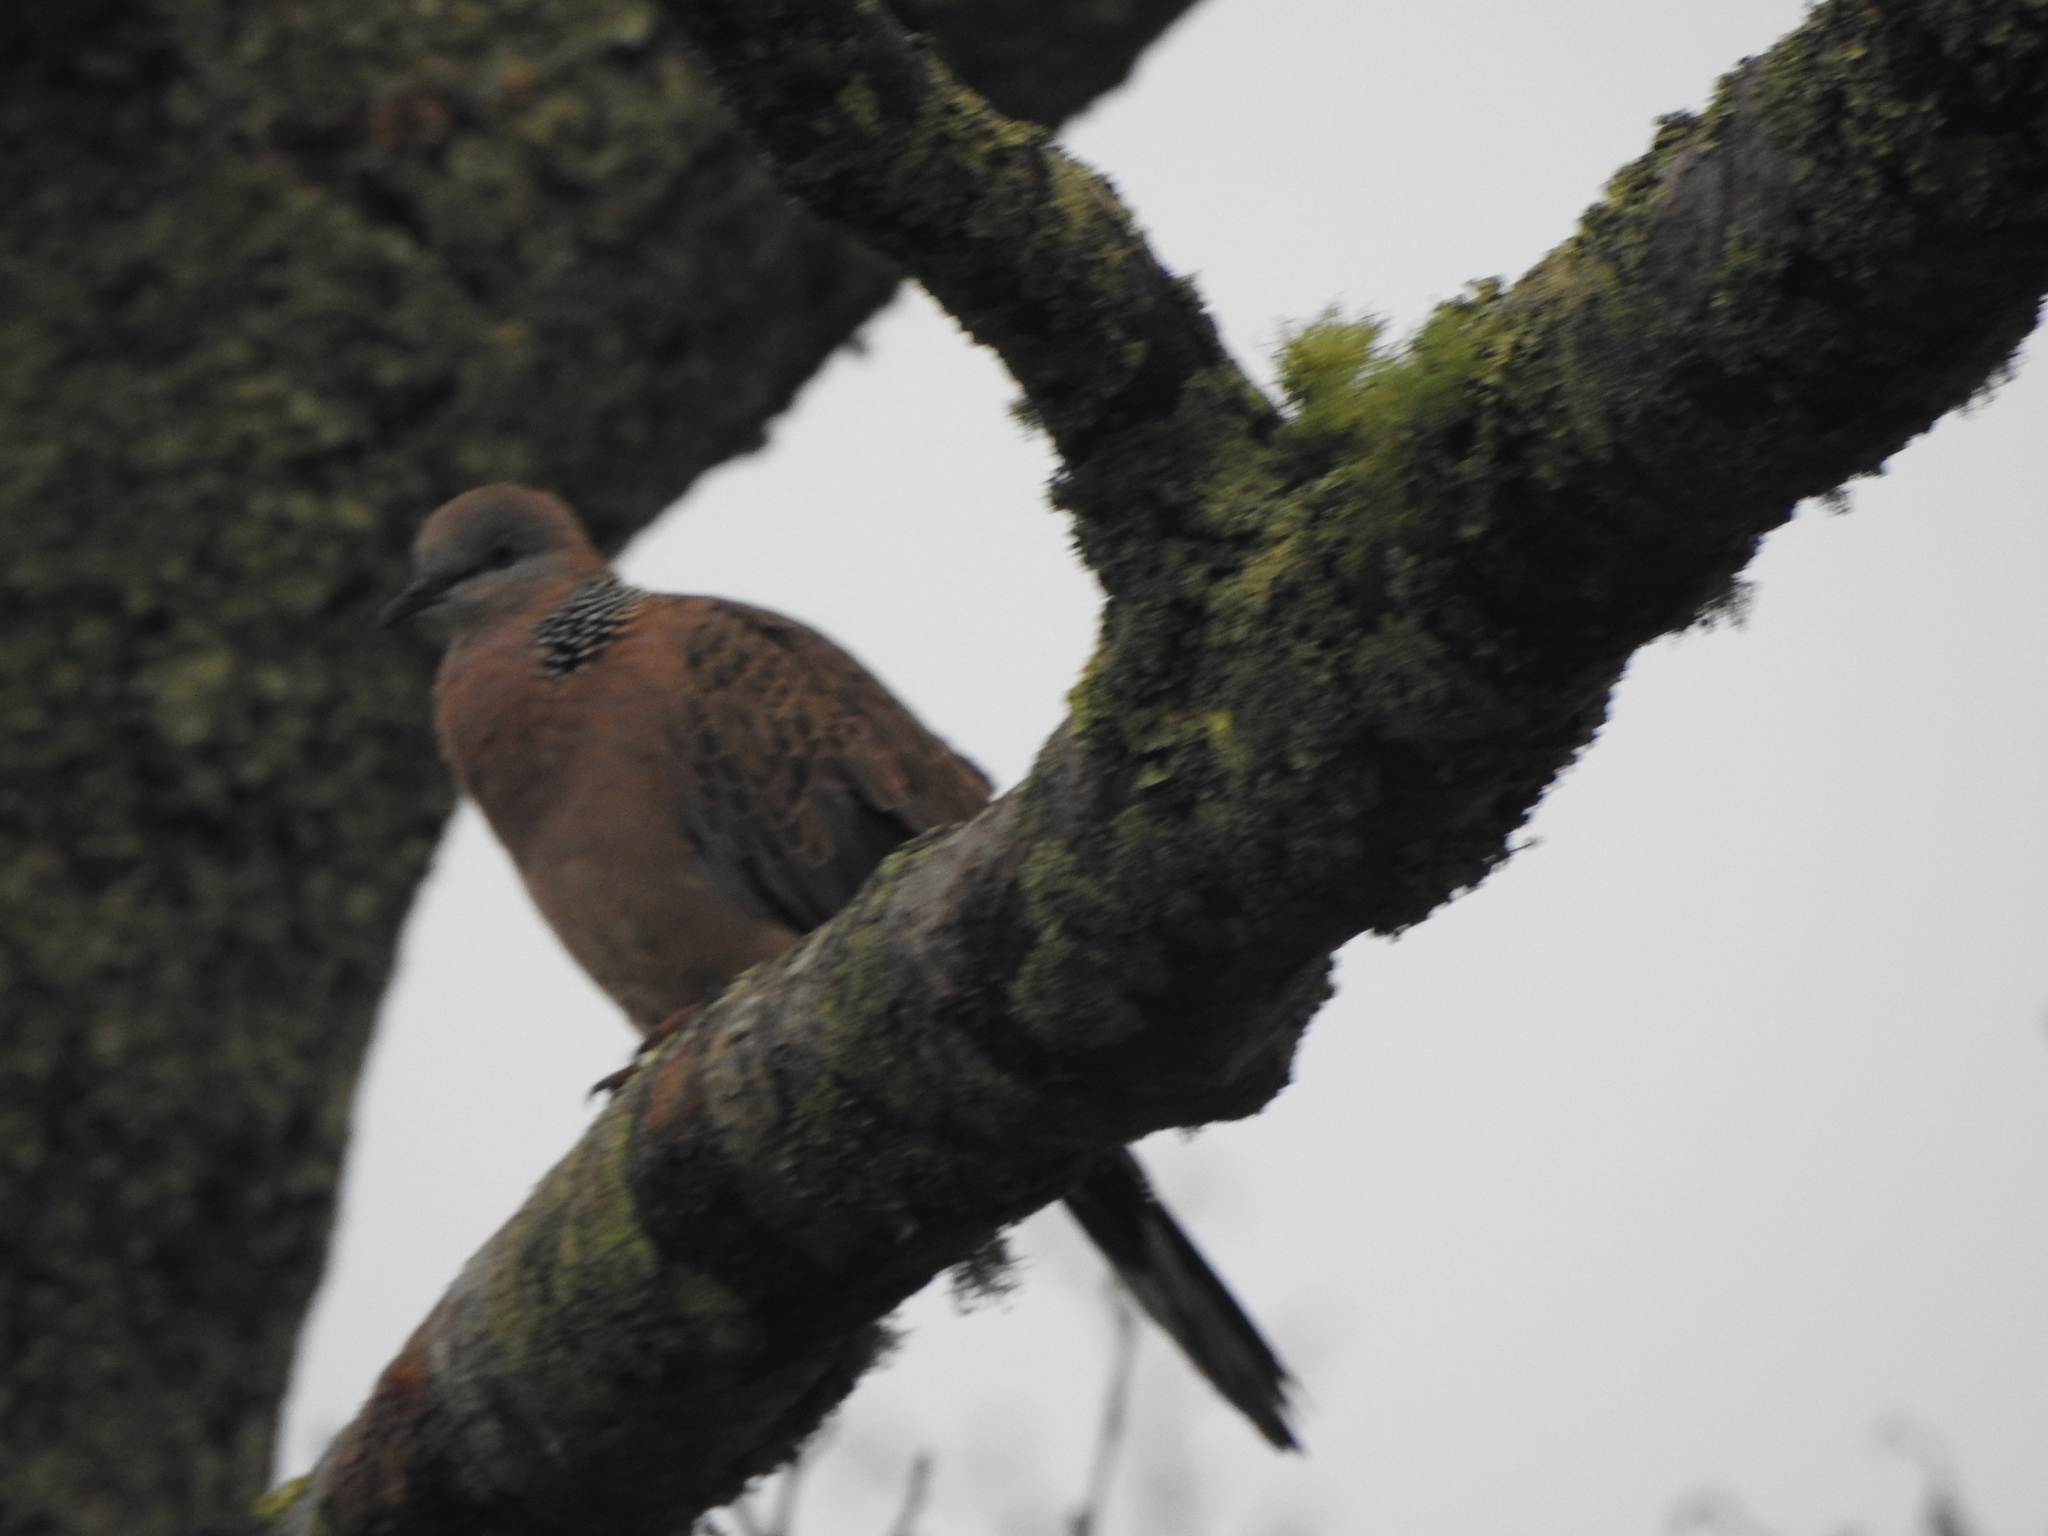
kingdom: Animalia
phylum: Chordata
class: Aves
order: Columbiformes
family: Columbidae
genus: Spilopelia
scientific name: Spilopelia chinensis
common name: Spotted dove
